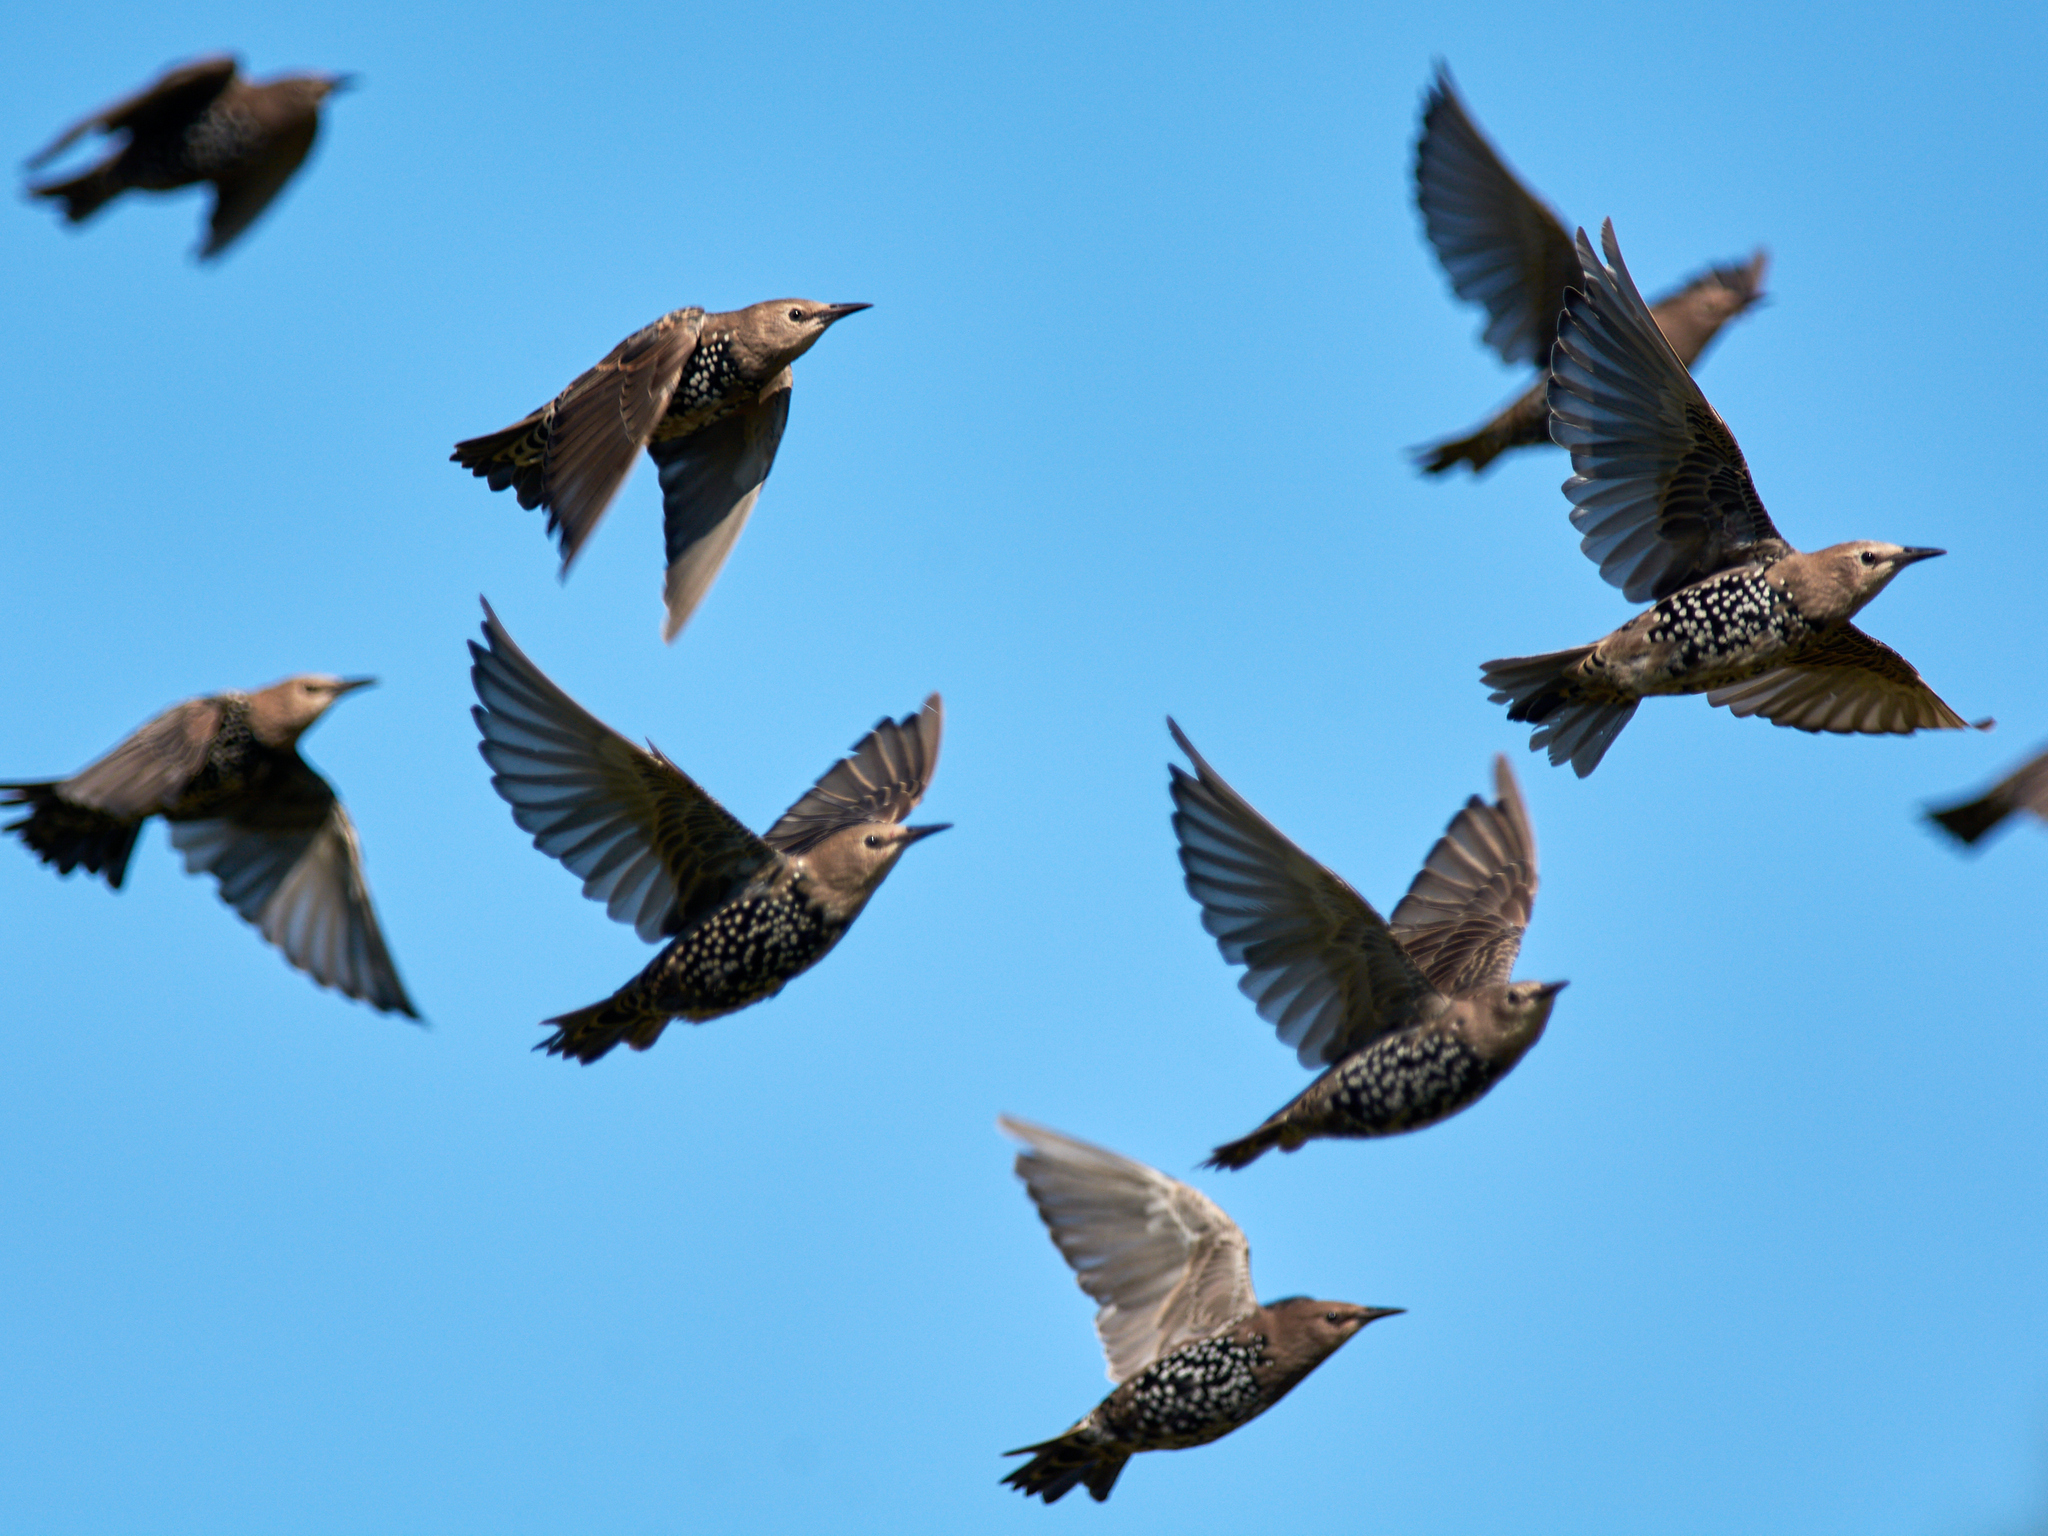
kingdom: Animalia
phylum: Chordata
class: Aves
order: Passeriformes
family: Sturnidae
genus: Sturnus
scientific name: Sturnus vulgaris
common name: Common starling
